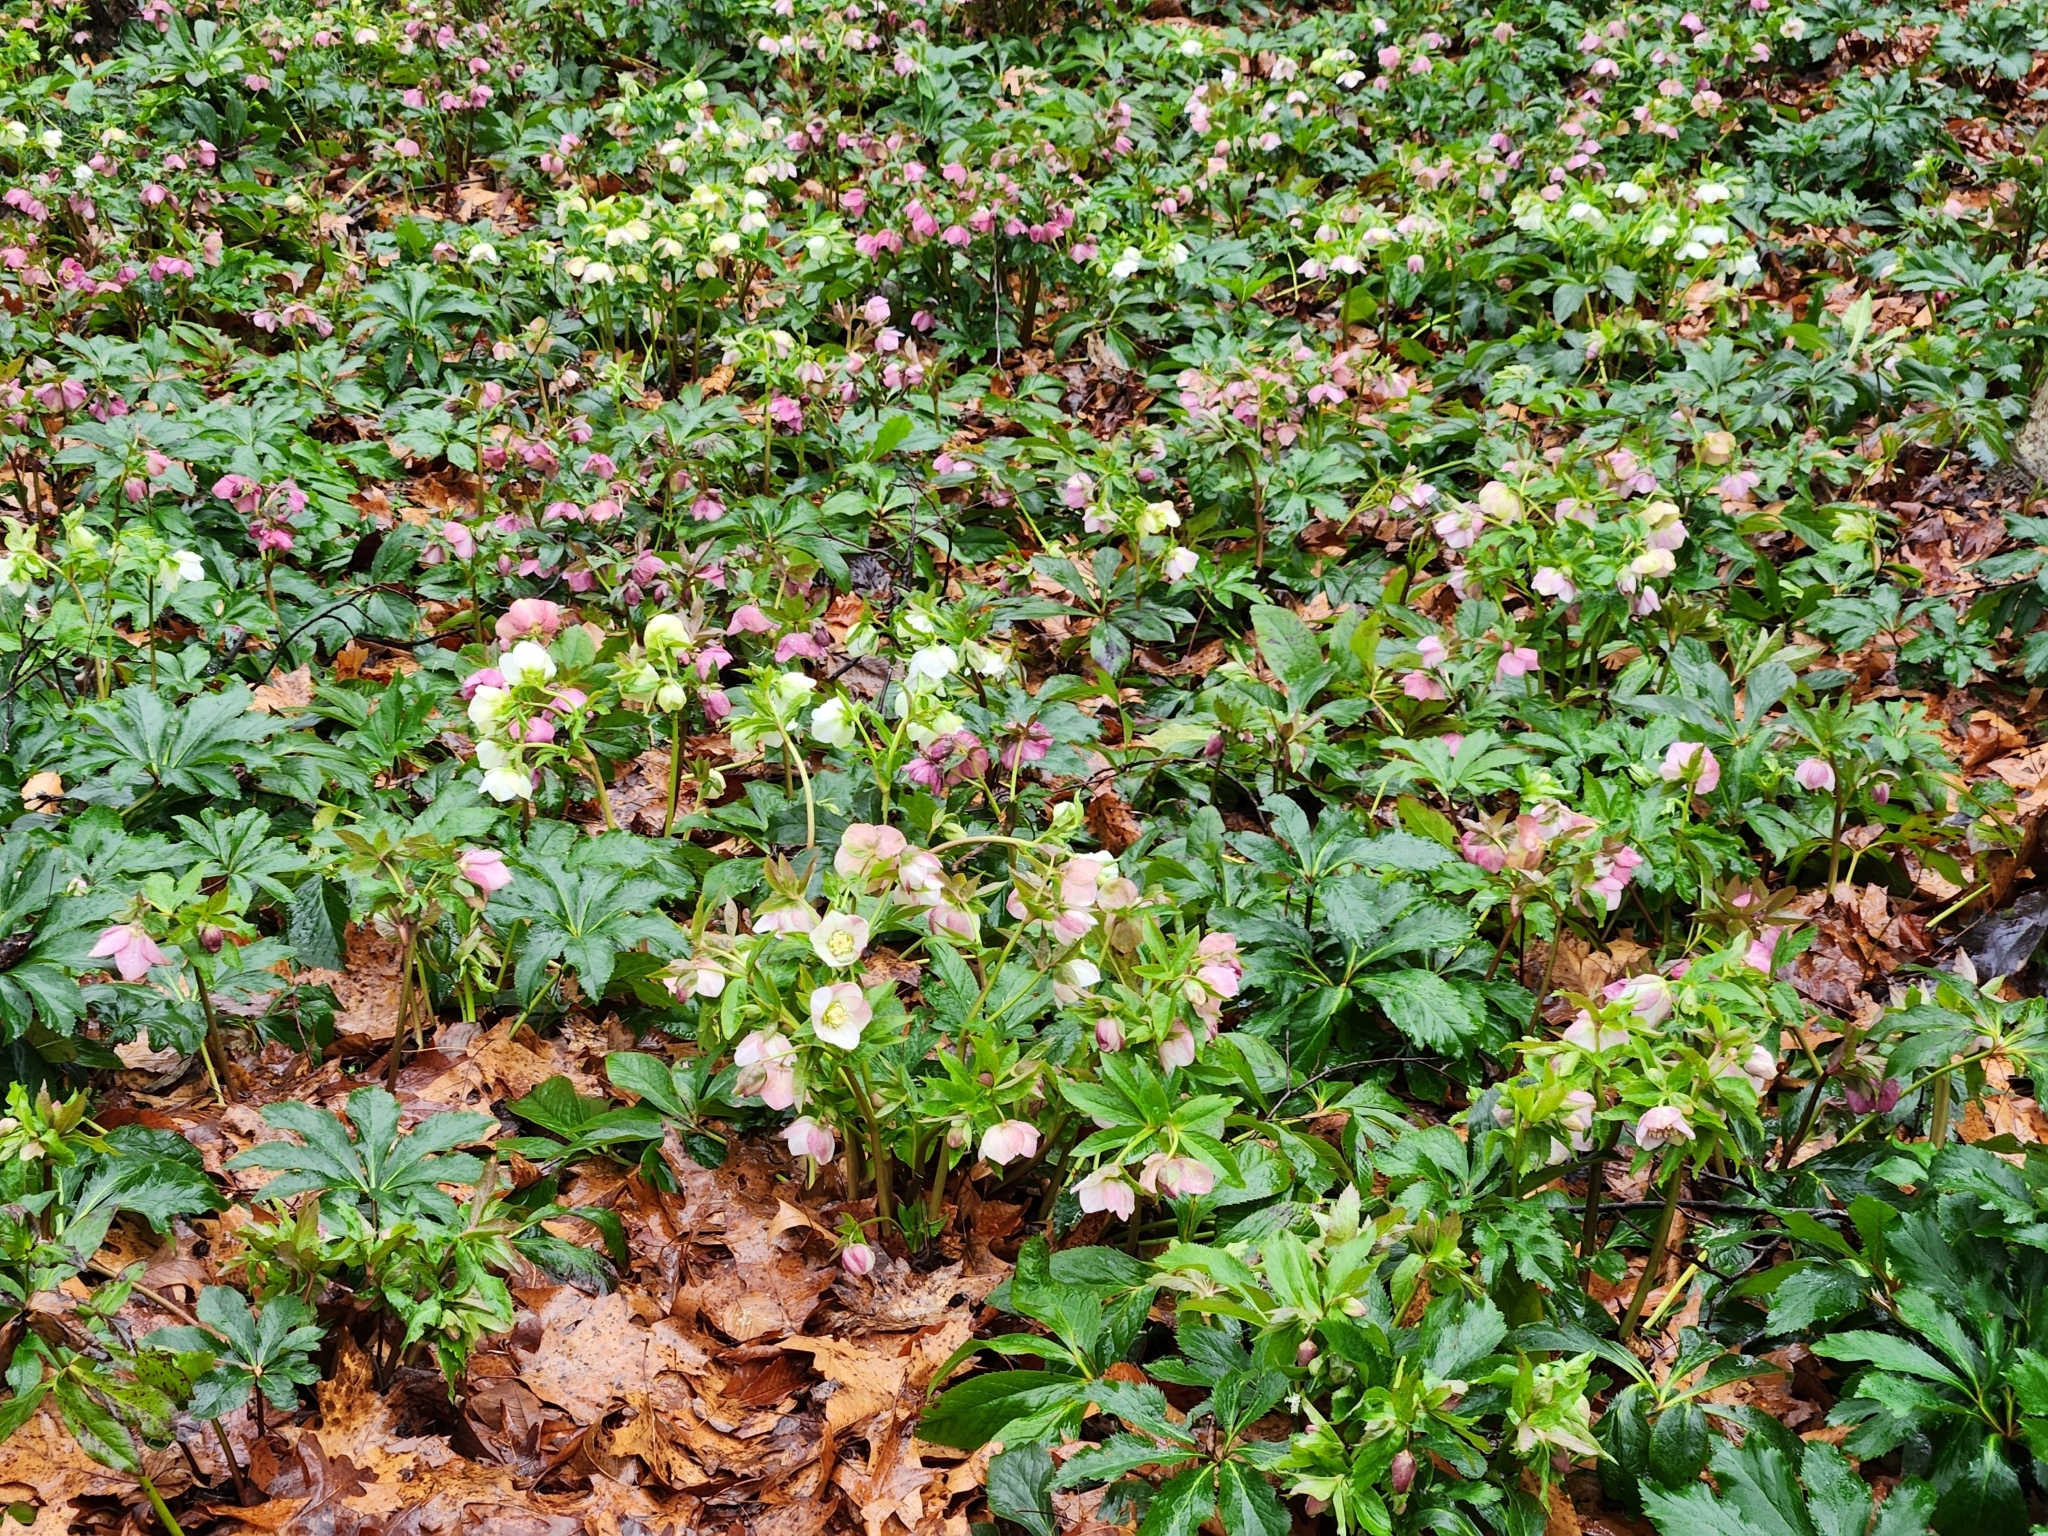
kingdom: Plantae
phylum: Tracheophyta
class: Magnoliopsida
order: Ranunculales
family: Ranunculaceae
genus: Helleborus
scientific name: Helleborus orientalis
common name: Lenten-rose
